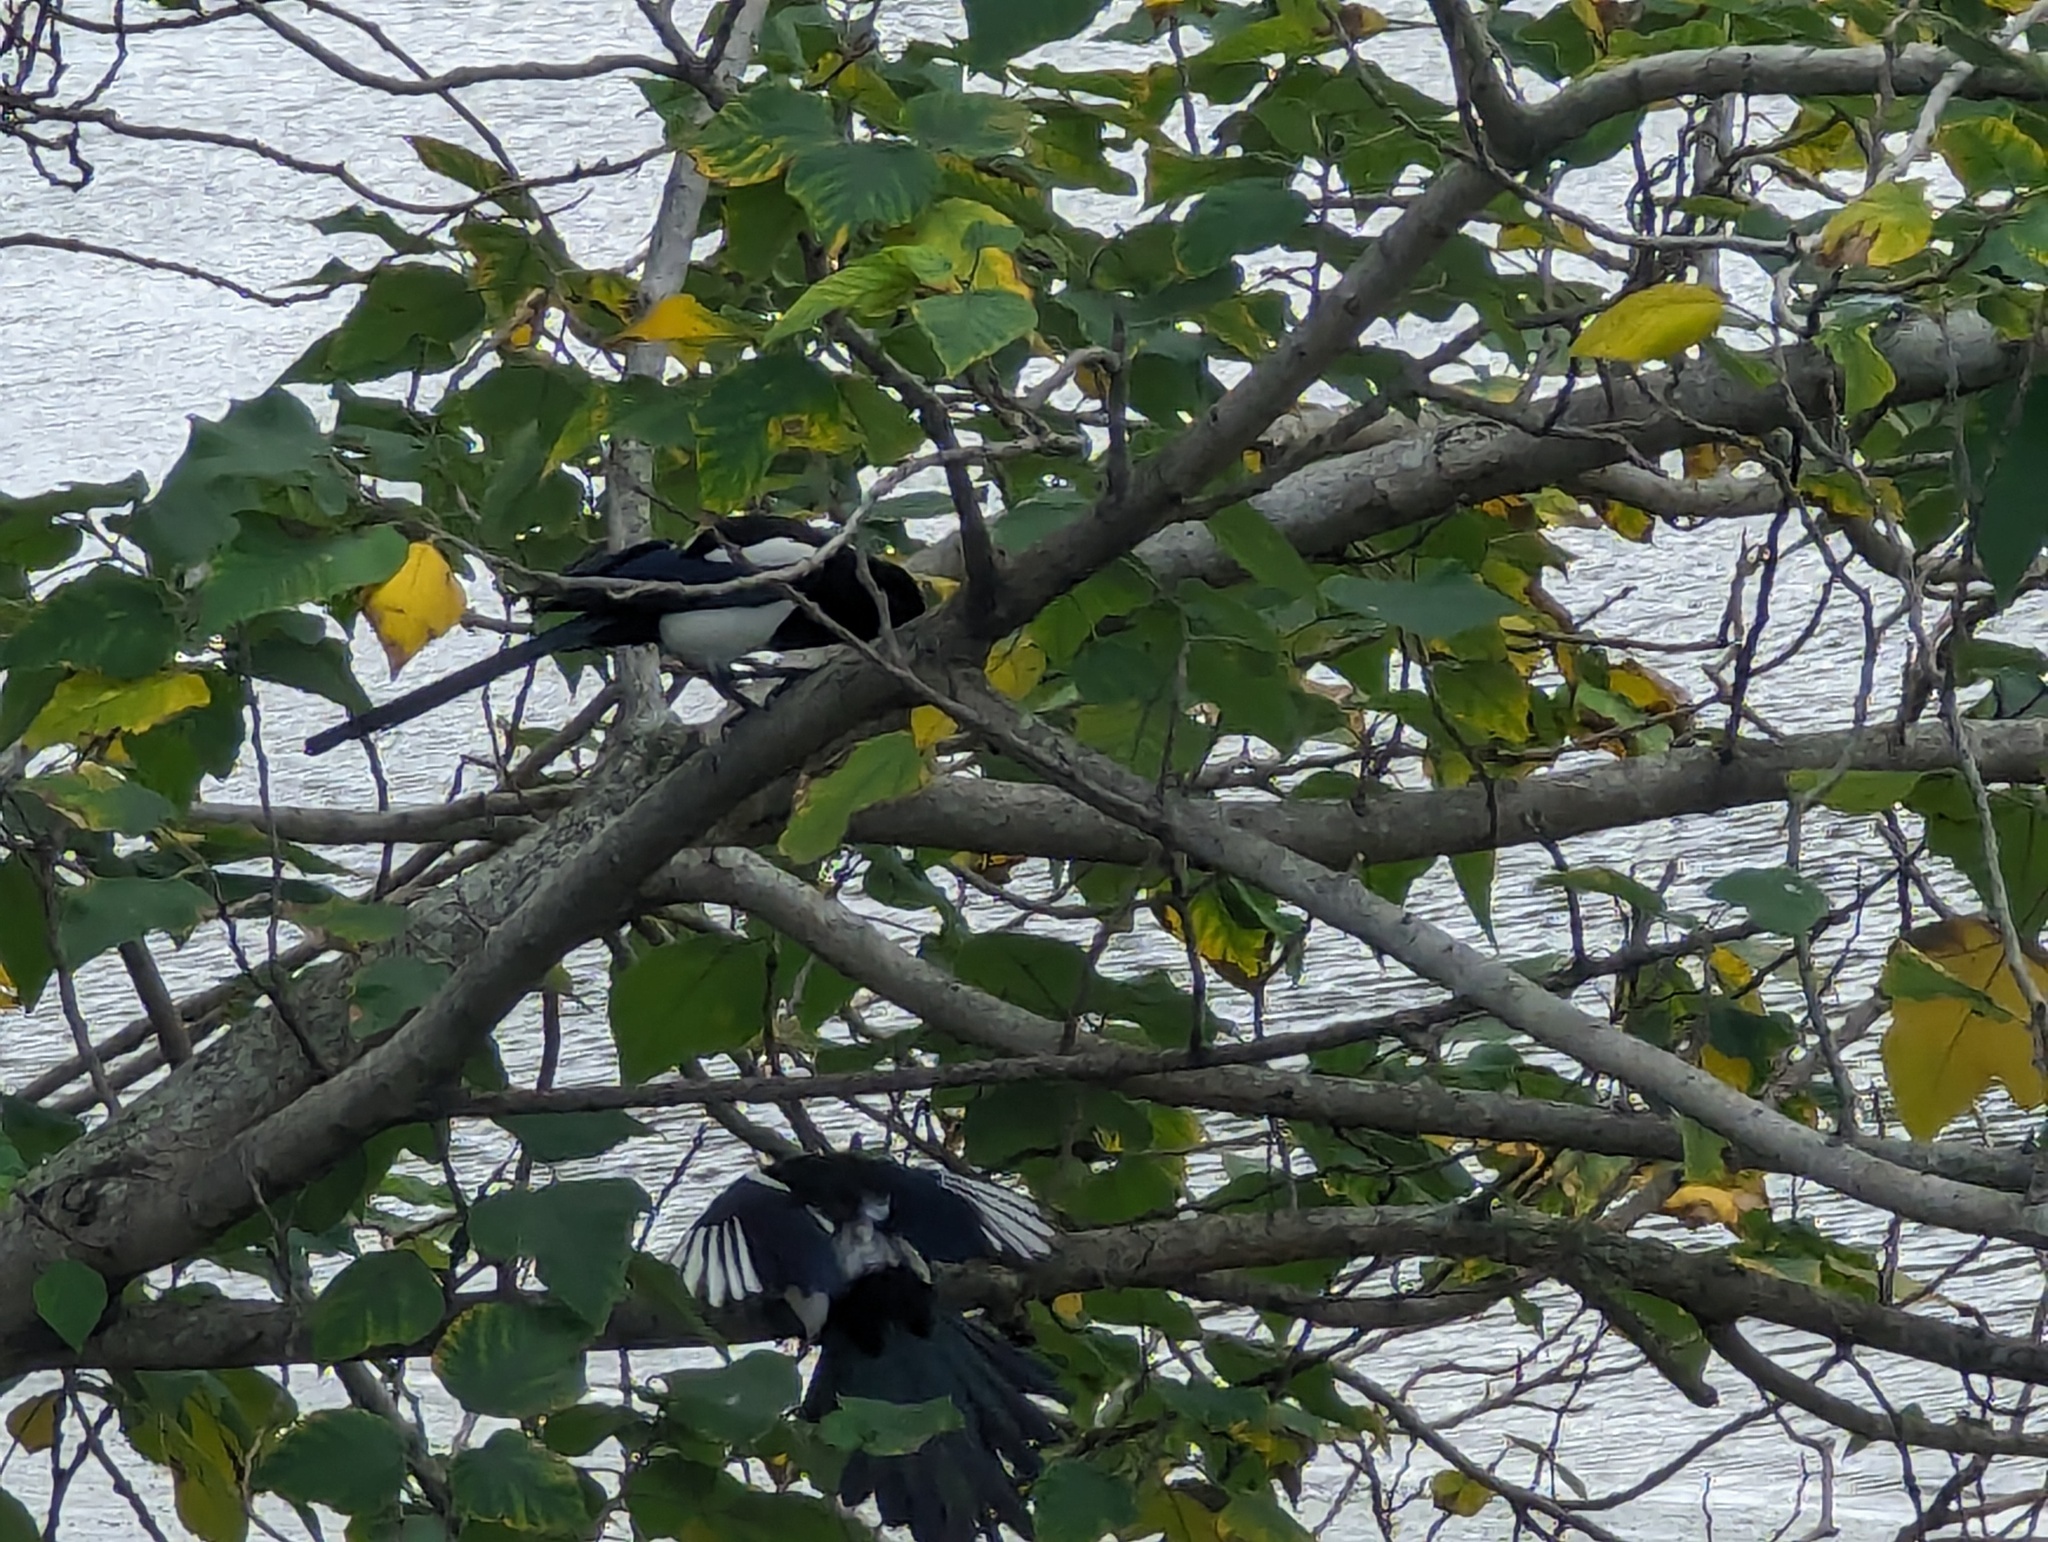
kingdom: Animalia
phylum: Chordata
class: Aves
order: Passeriformes
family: Corvidae
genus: Pica
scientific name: Pica serica
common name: Oriental magpie
